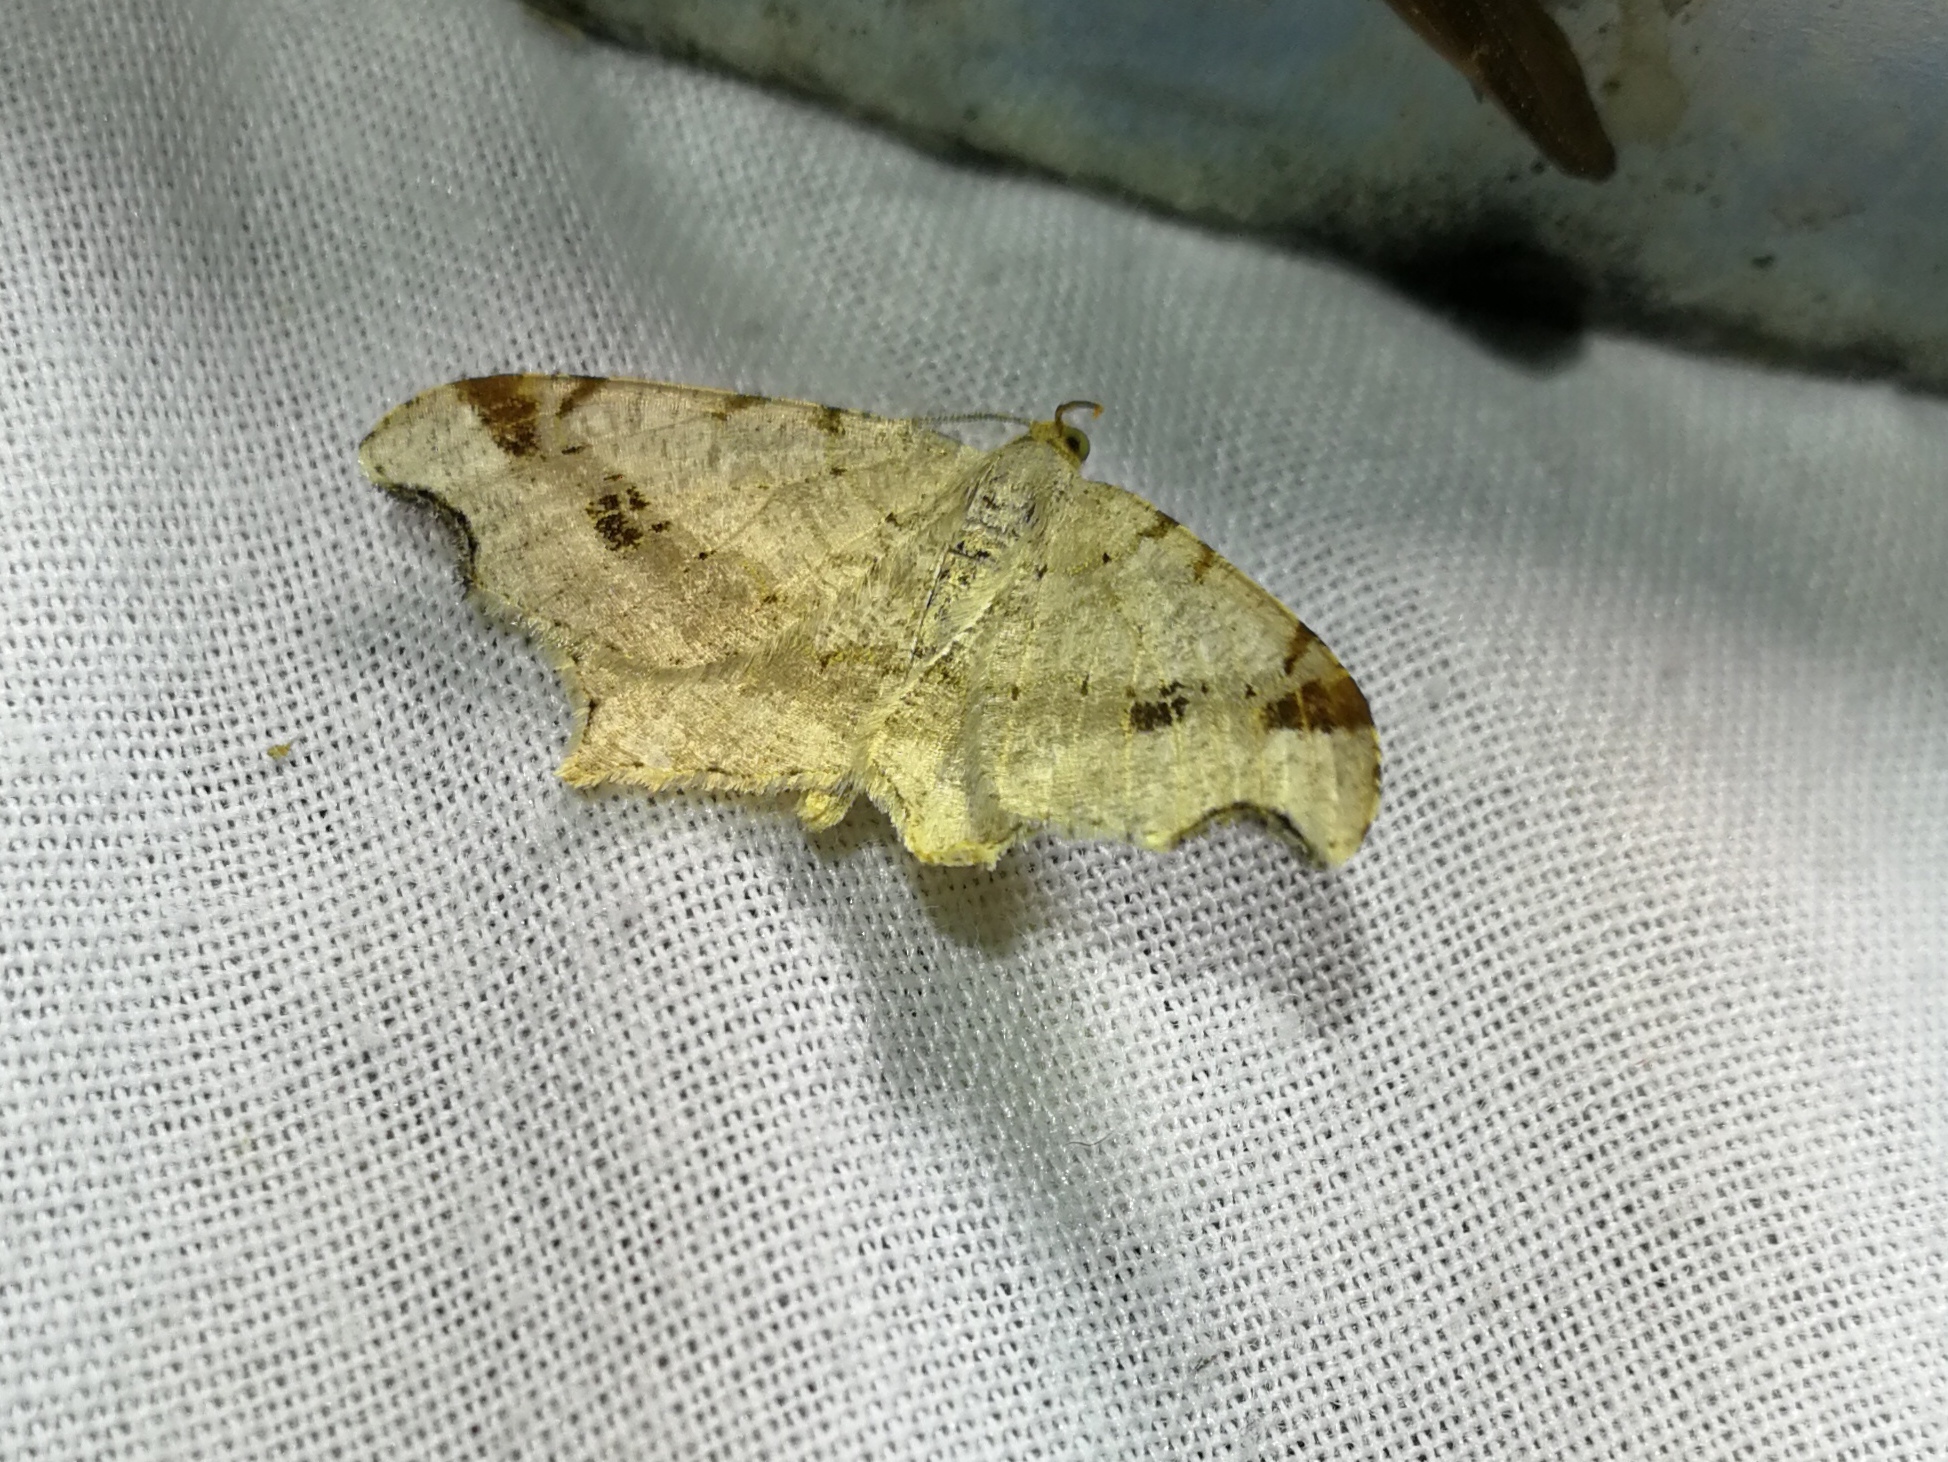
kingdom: Animalia
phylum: Arthropoda
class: Insecta
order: Lepidoptera
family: Geometridae
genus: Macaria
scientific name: Macaria alternata
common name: Sharp-angled peacock
